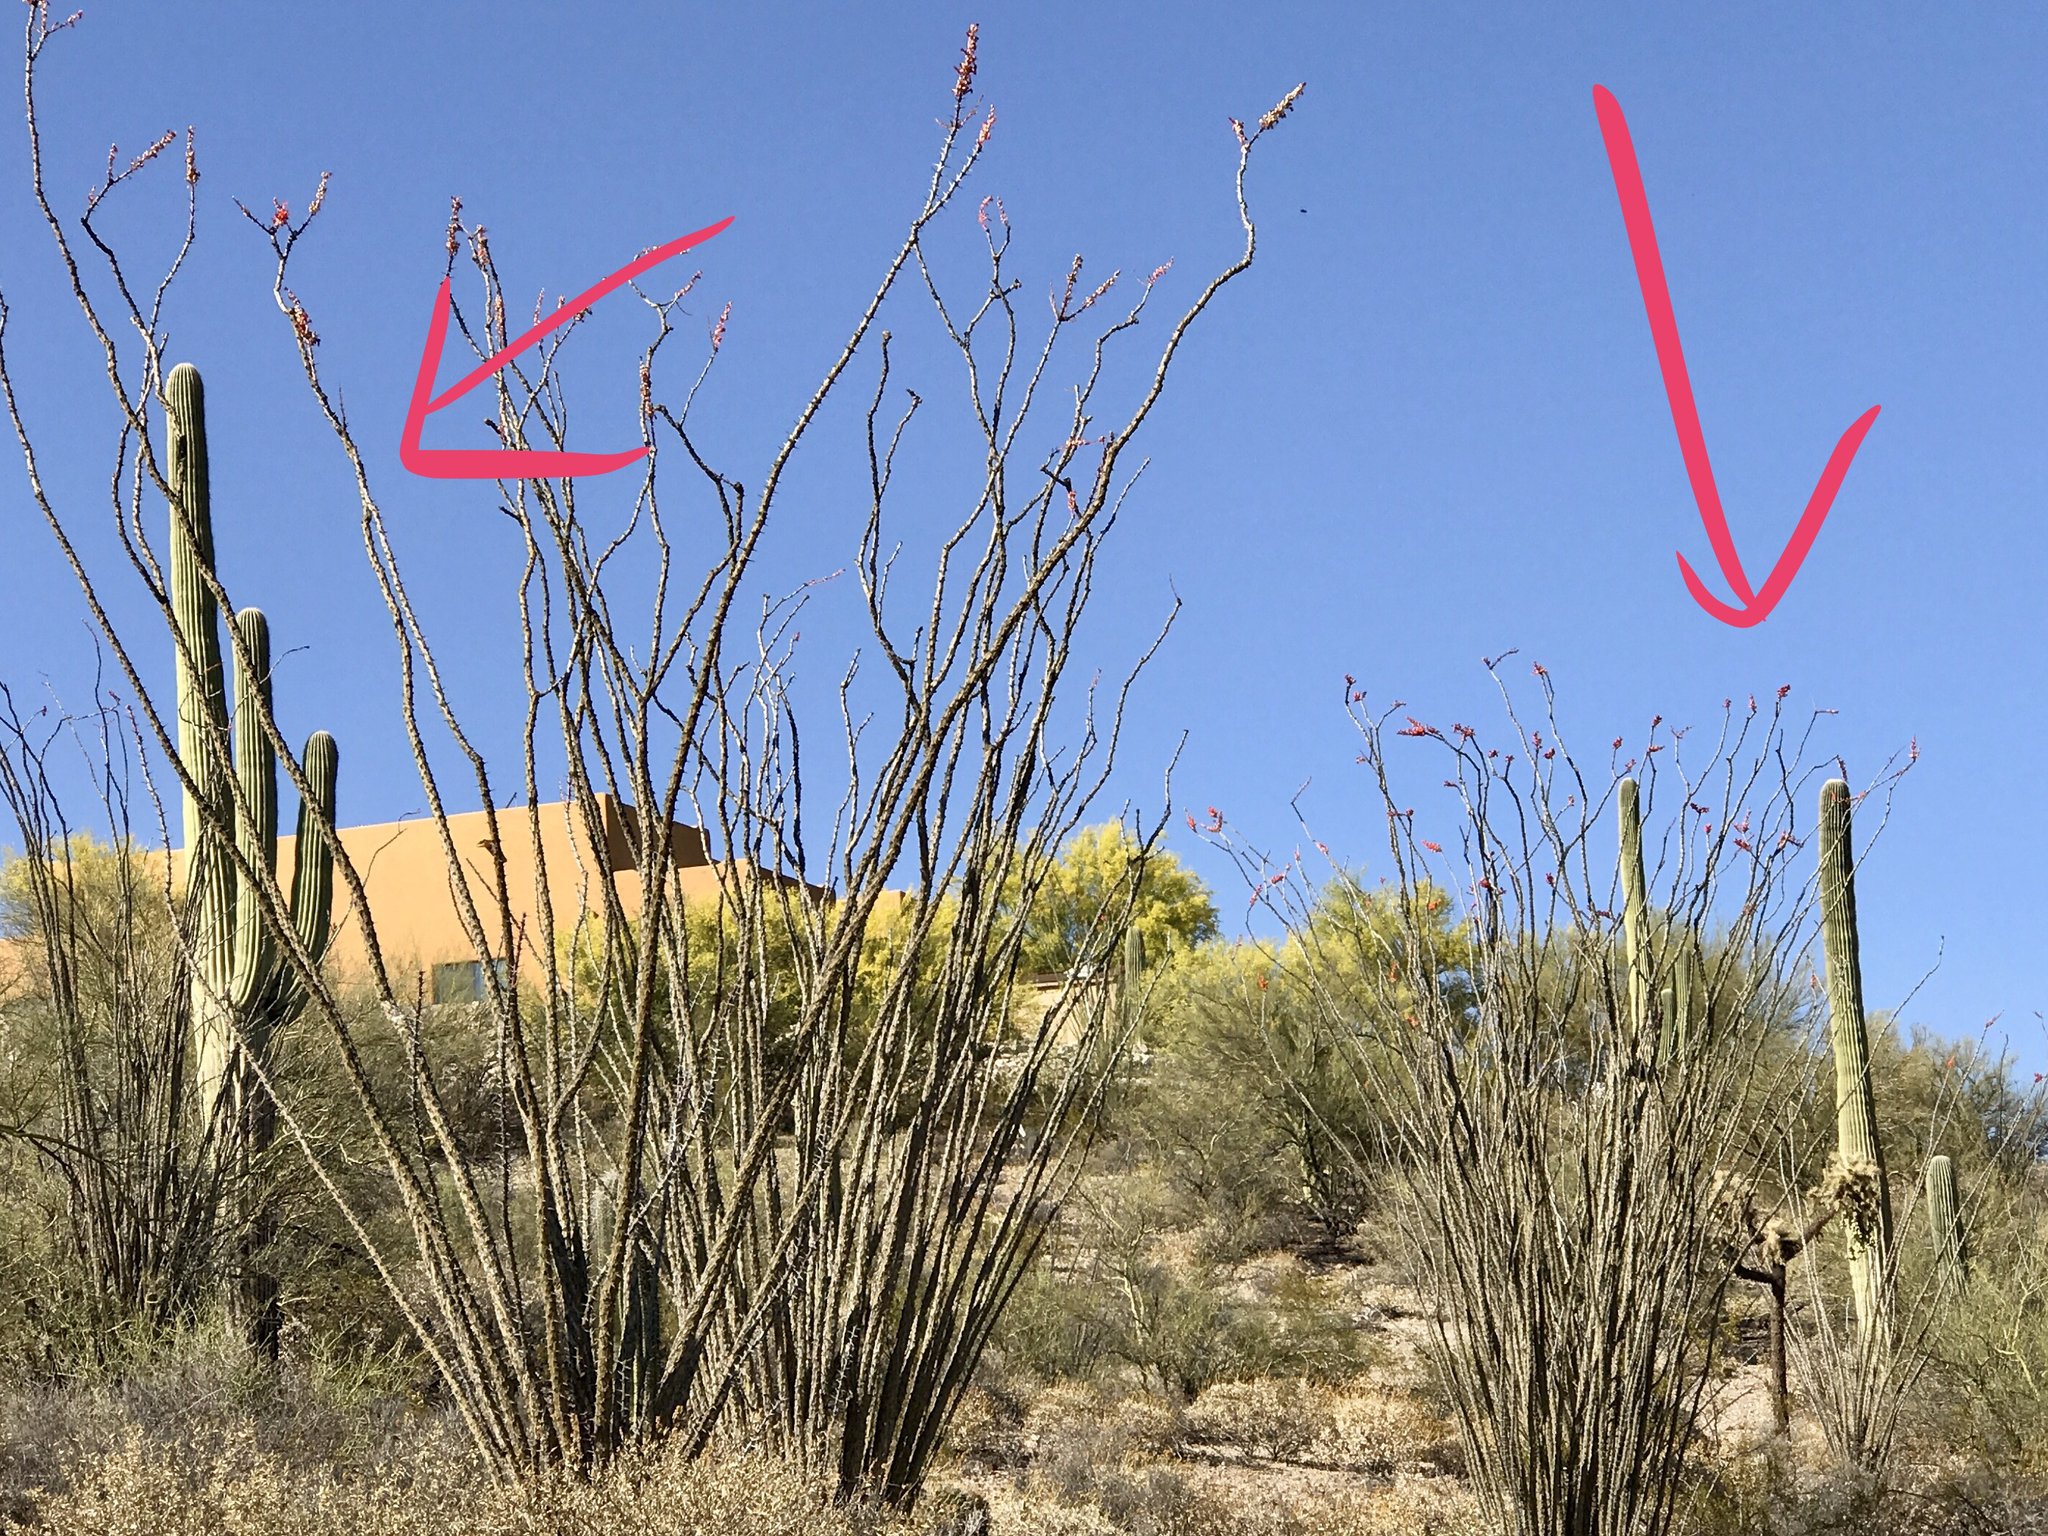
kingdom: Plantae
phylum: Tracheophyta
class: Magnoliopsida
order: Caryophyllales
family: Cactaceae
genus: Carnegiea
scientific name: Carnegiea gigantea
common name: Saguaro
